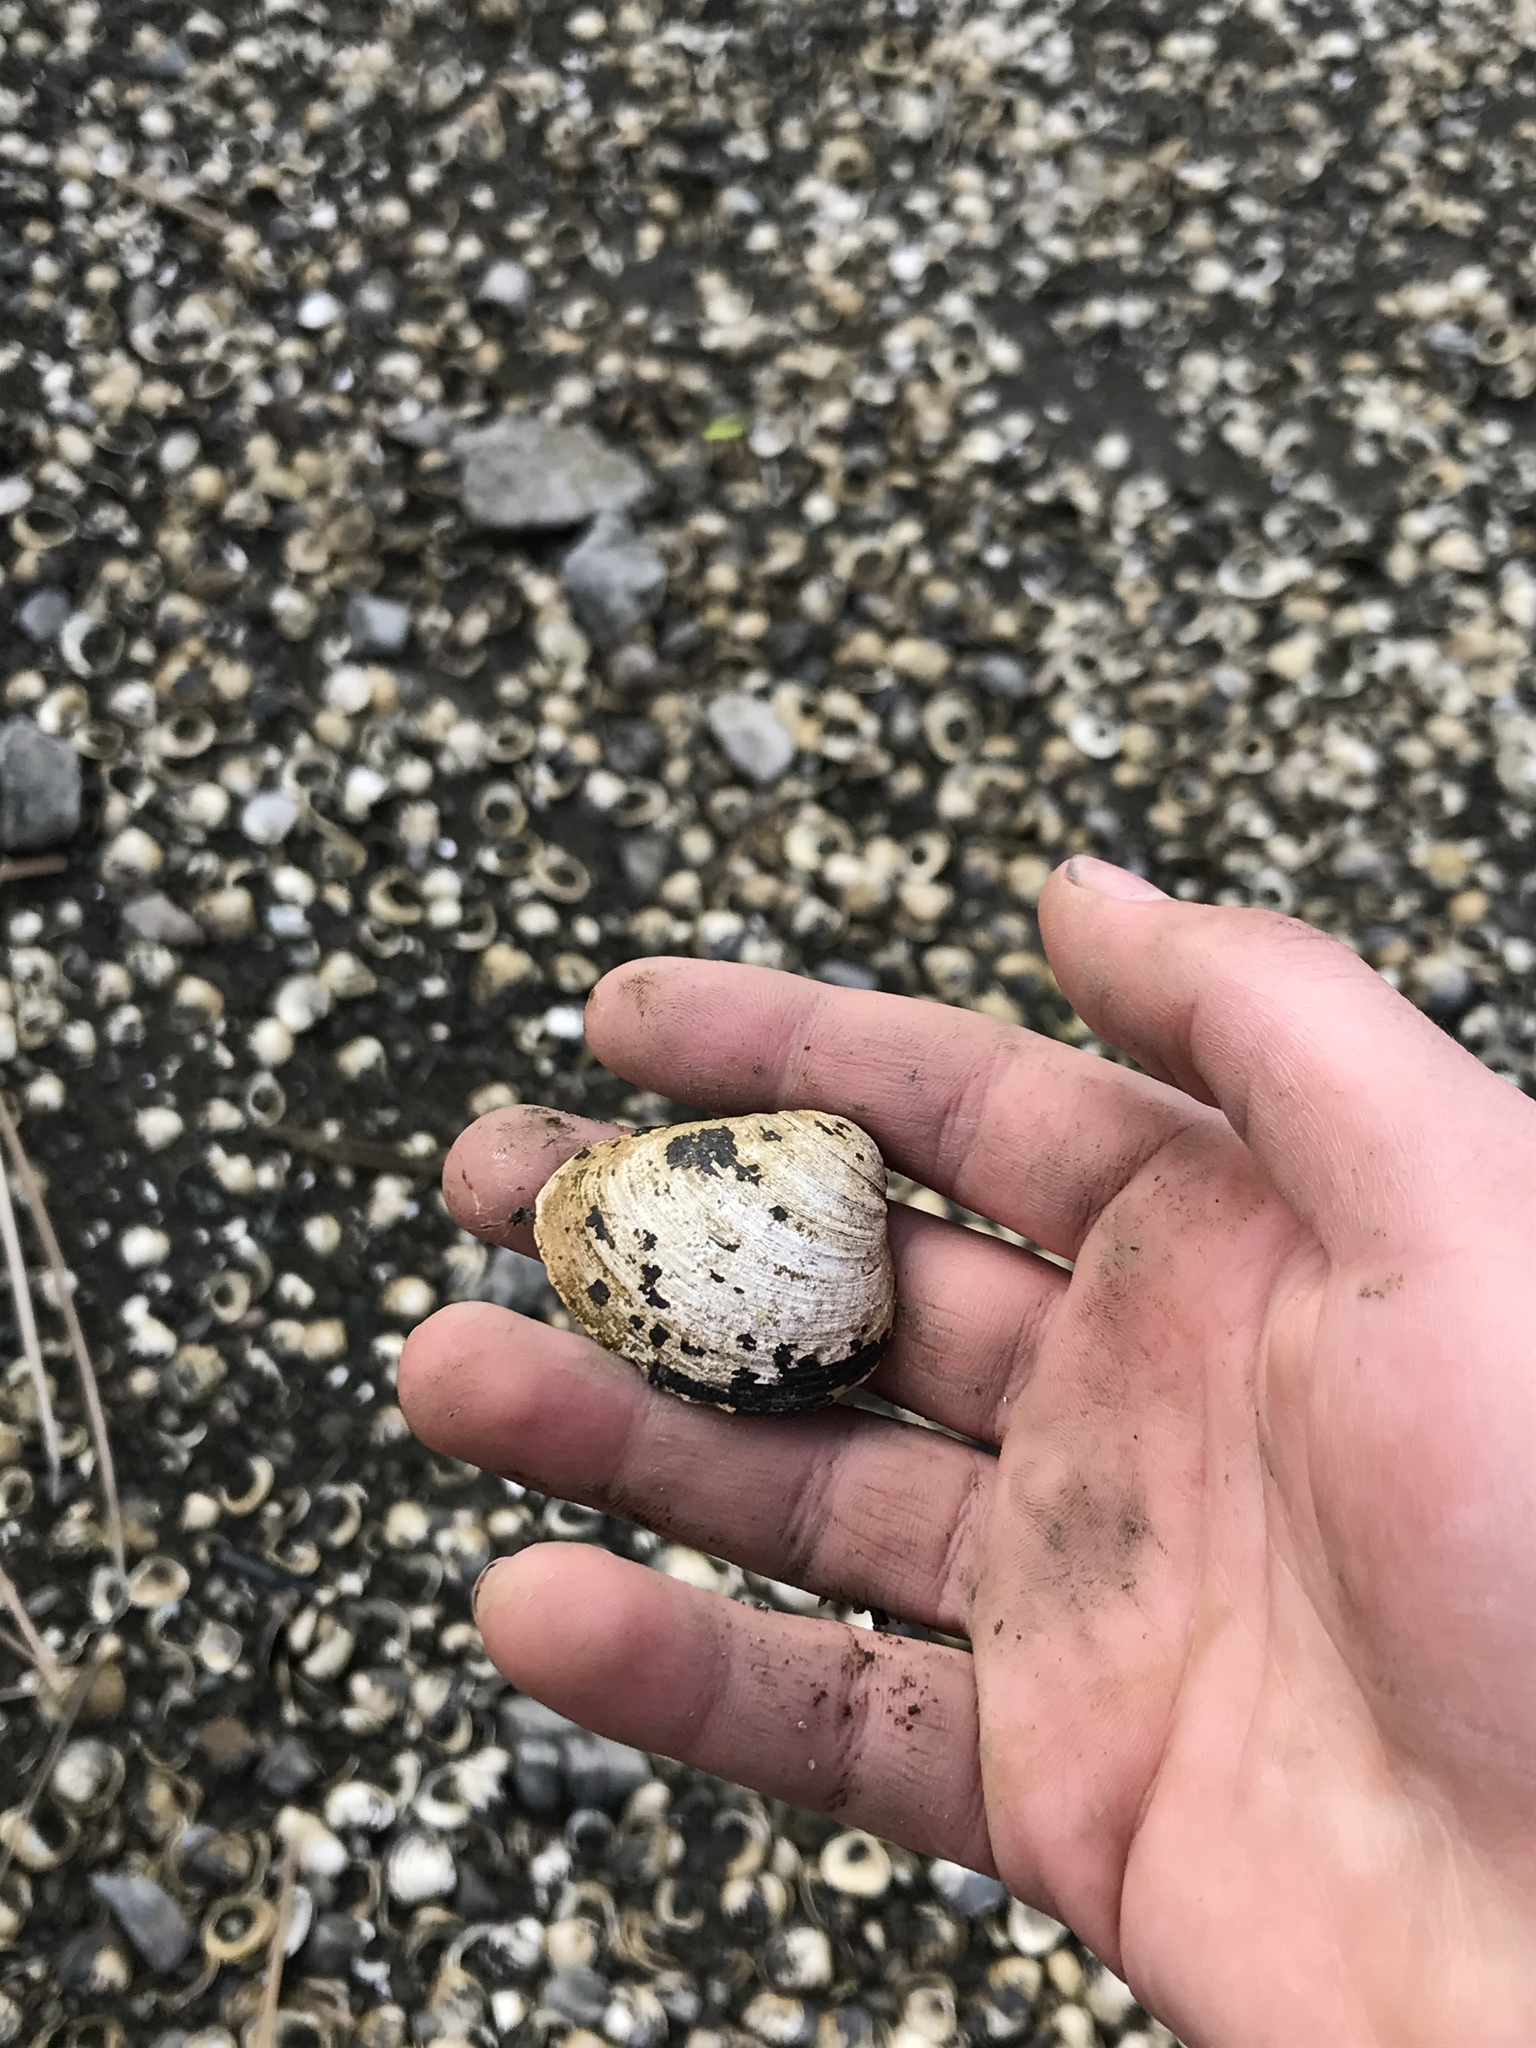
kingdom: Animalia
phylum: Mollusca
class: Bivalvia
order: Venerida
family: Cyrenidae
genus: Corbicula
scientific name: Corbicula fluminea
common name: Asian clam
